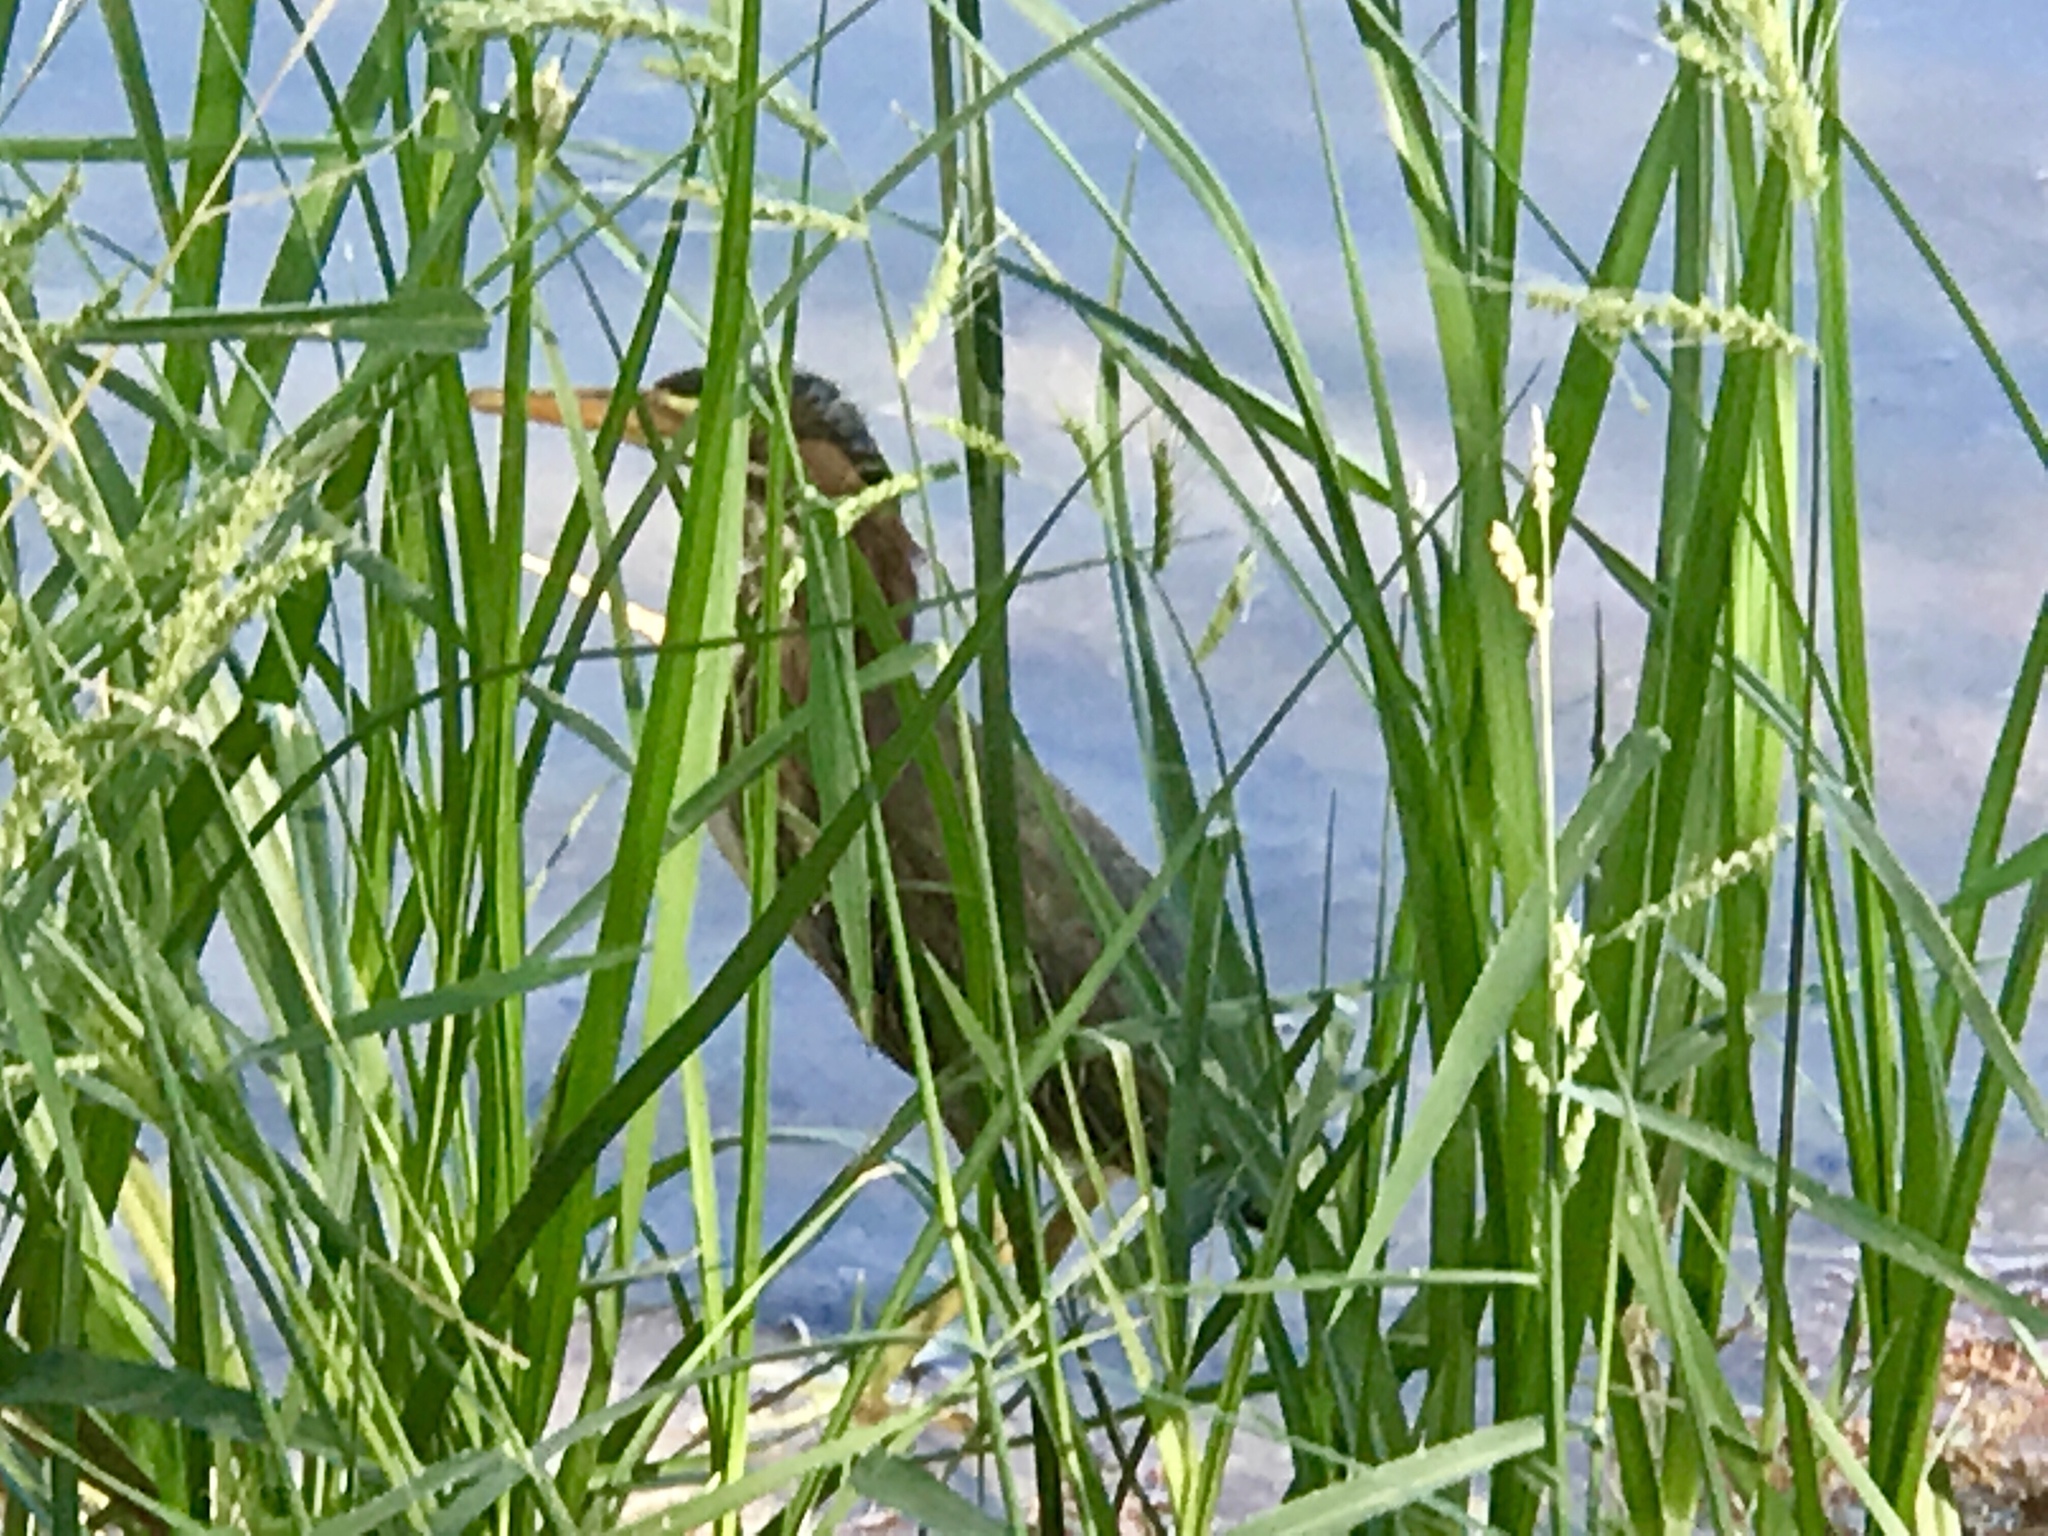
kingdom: Animalia
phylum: Chordata
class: Aves
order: Pelecaniformes
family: Ardeidae
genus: Butorides
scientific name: Butorides virescens
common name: Green heron
